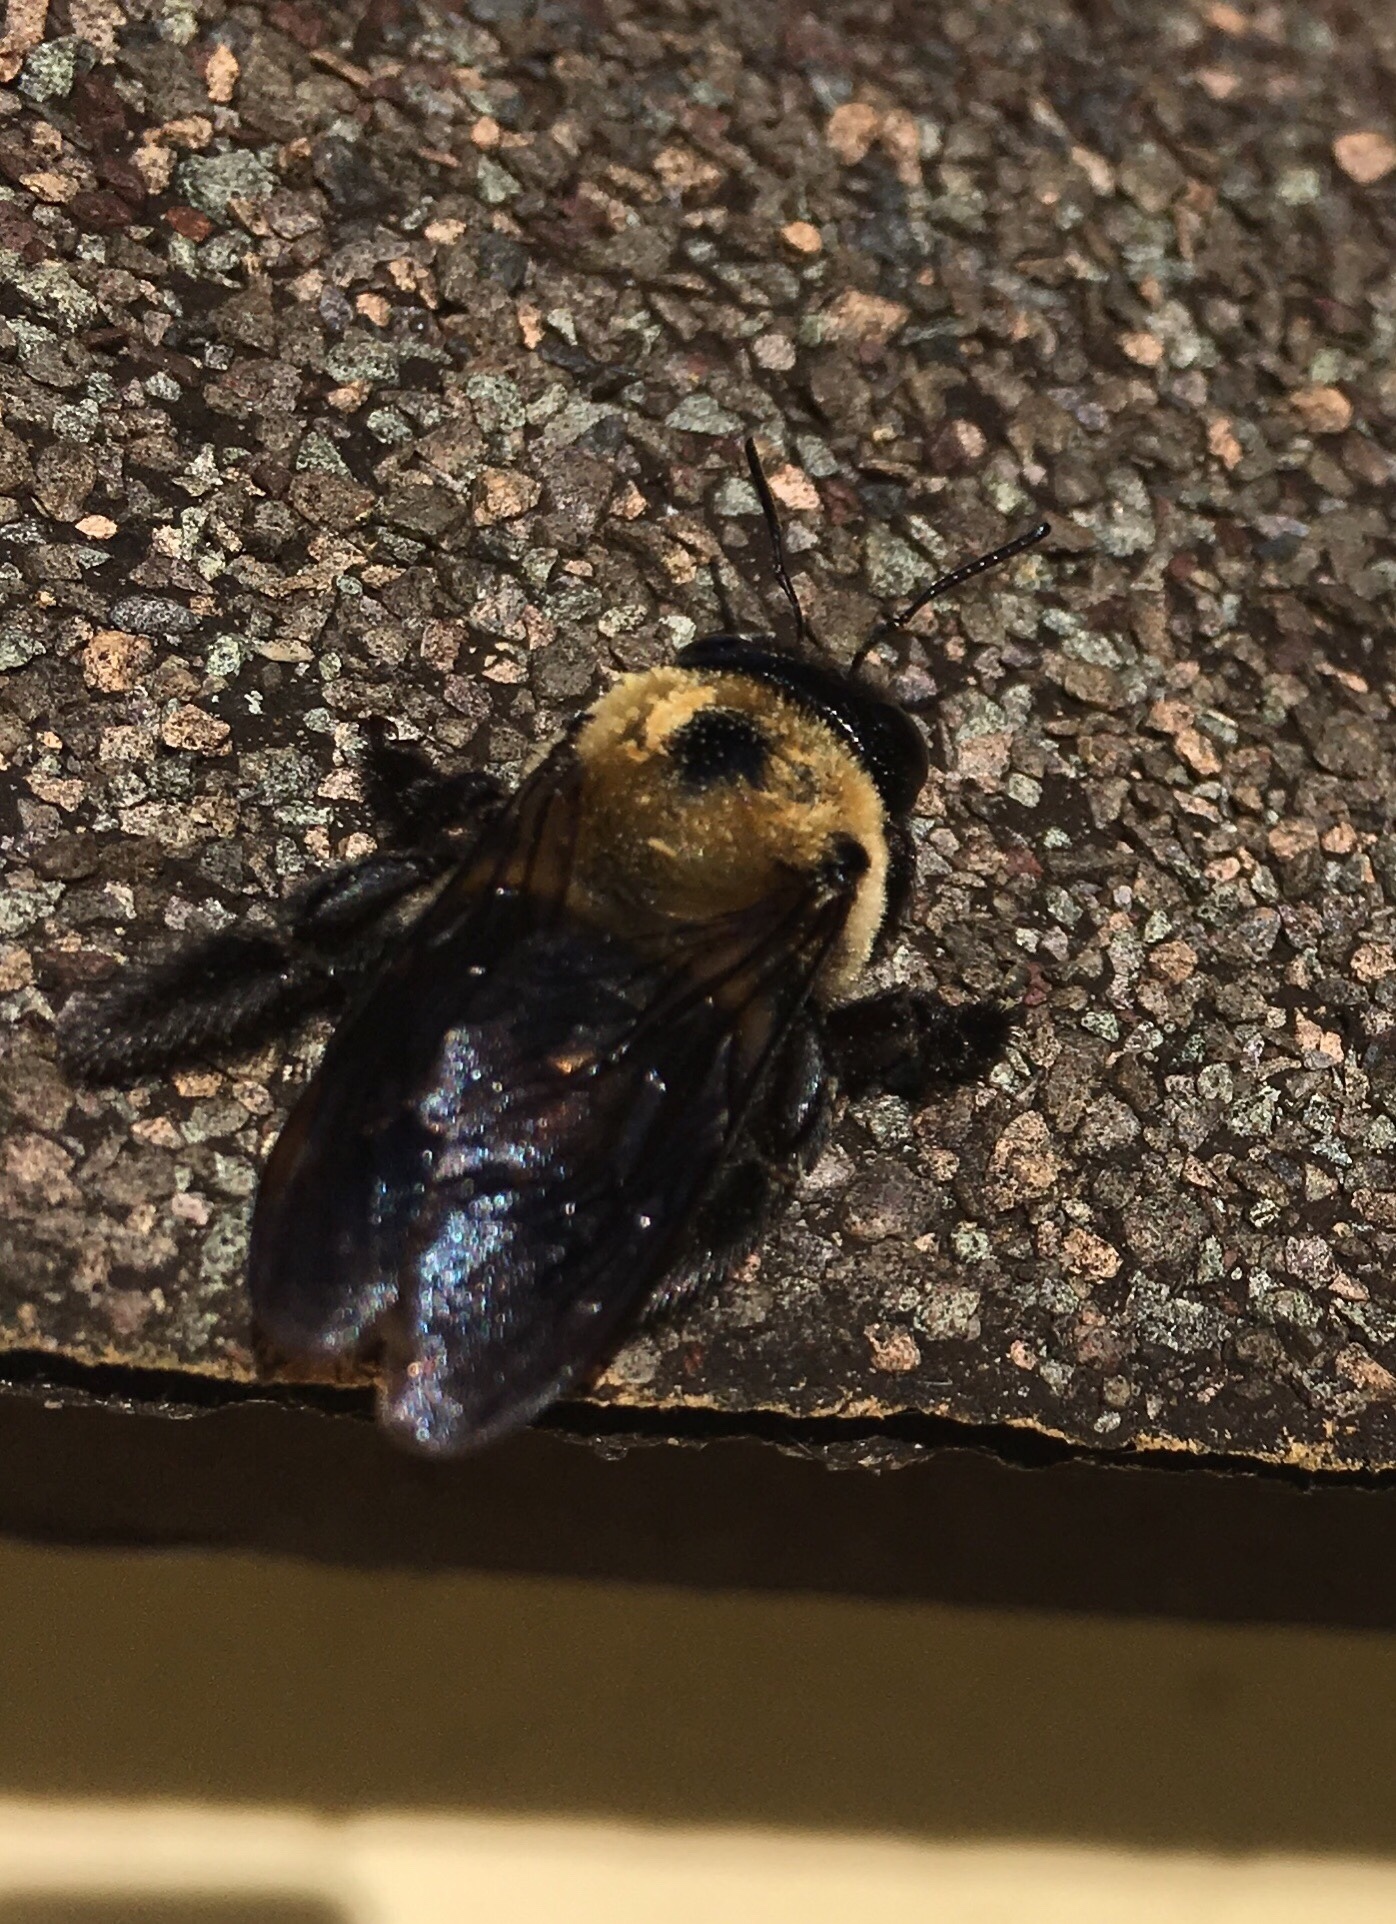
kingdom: Animalia
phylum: Arthropoda
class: Insecta
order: Hymenoptera
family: Apidae
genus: Xylocopa
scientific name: Xylocopa virginica
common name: Carpenter bee
